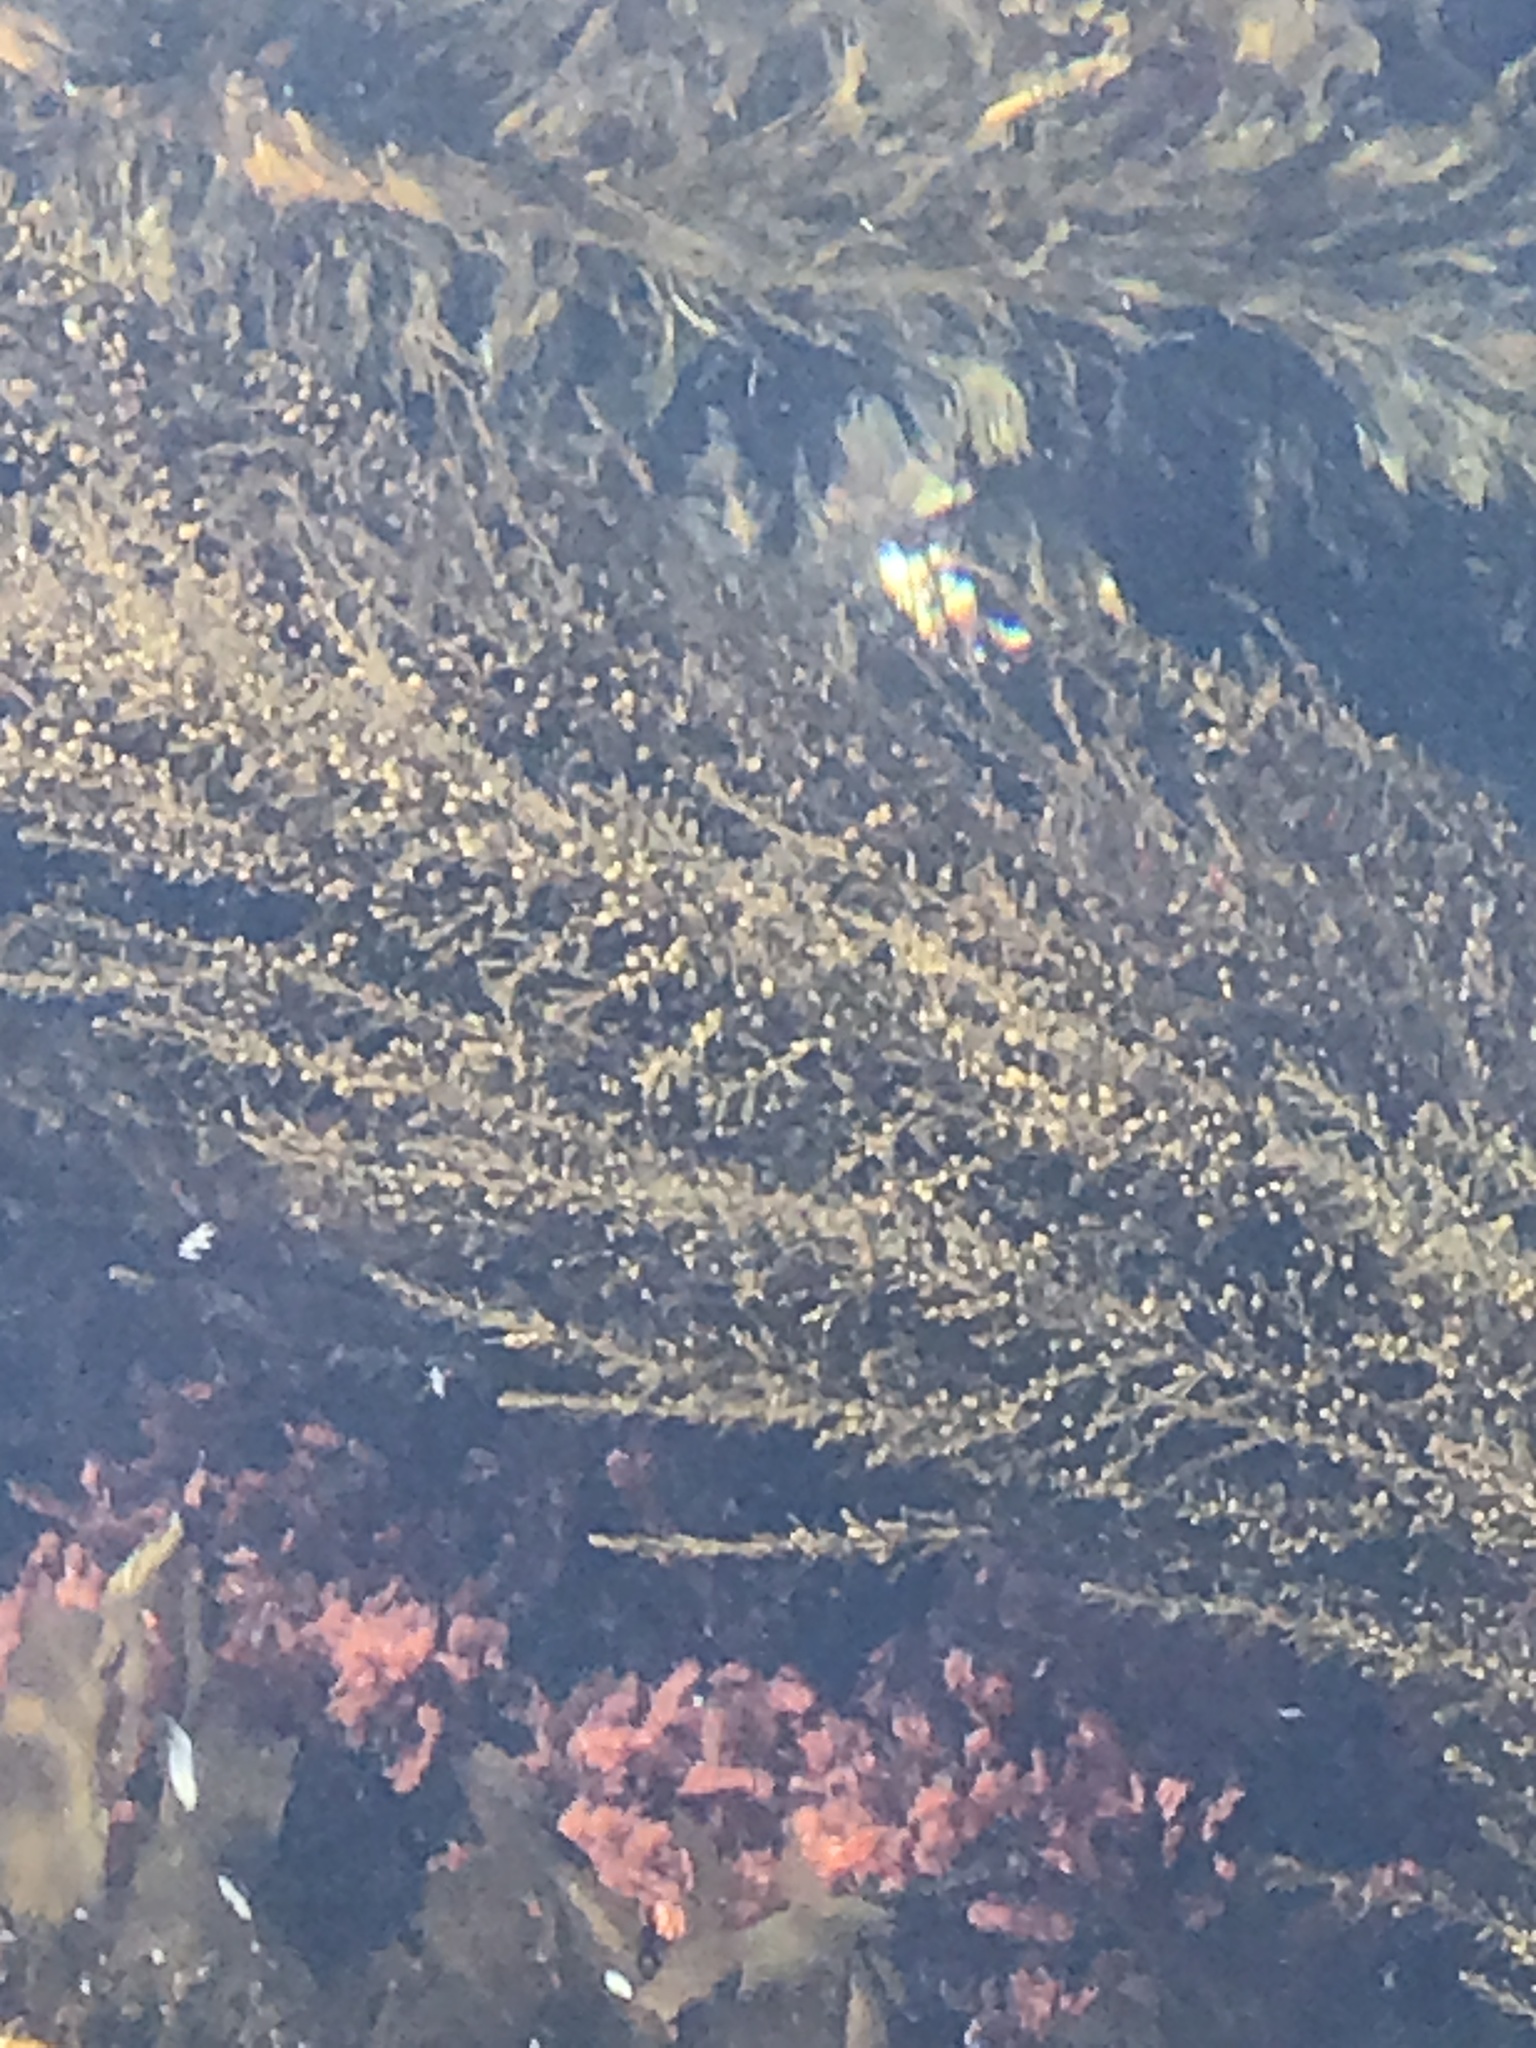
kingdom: Chromista
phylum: Ochrophyta
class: Phaeophyceae
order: Fucales
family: Sargassaceae
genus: Sargassum
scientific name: Sargassum muticum
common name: Japweed
